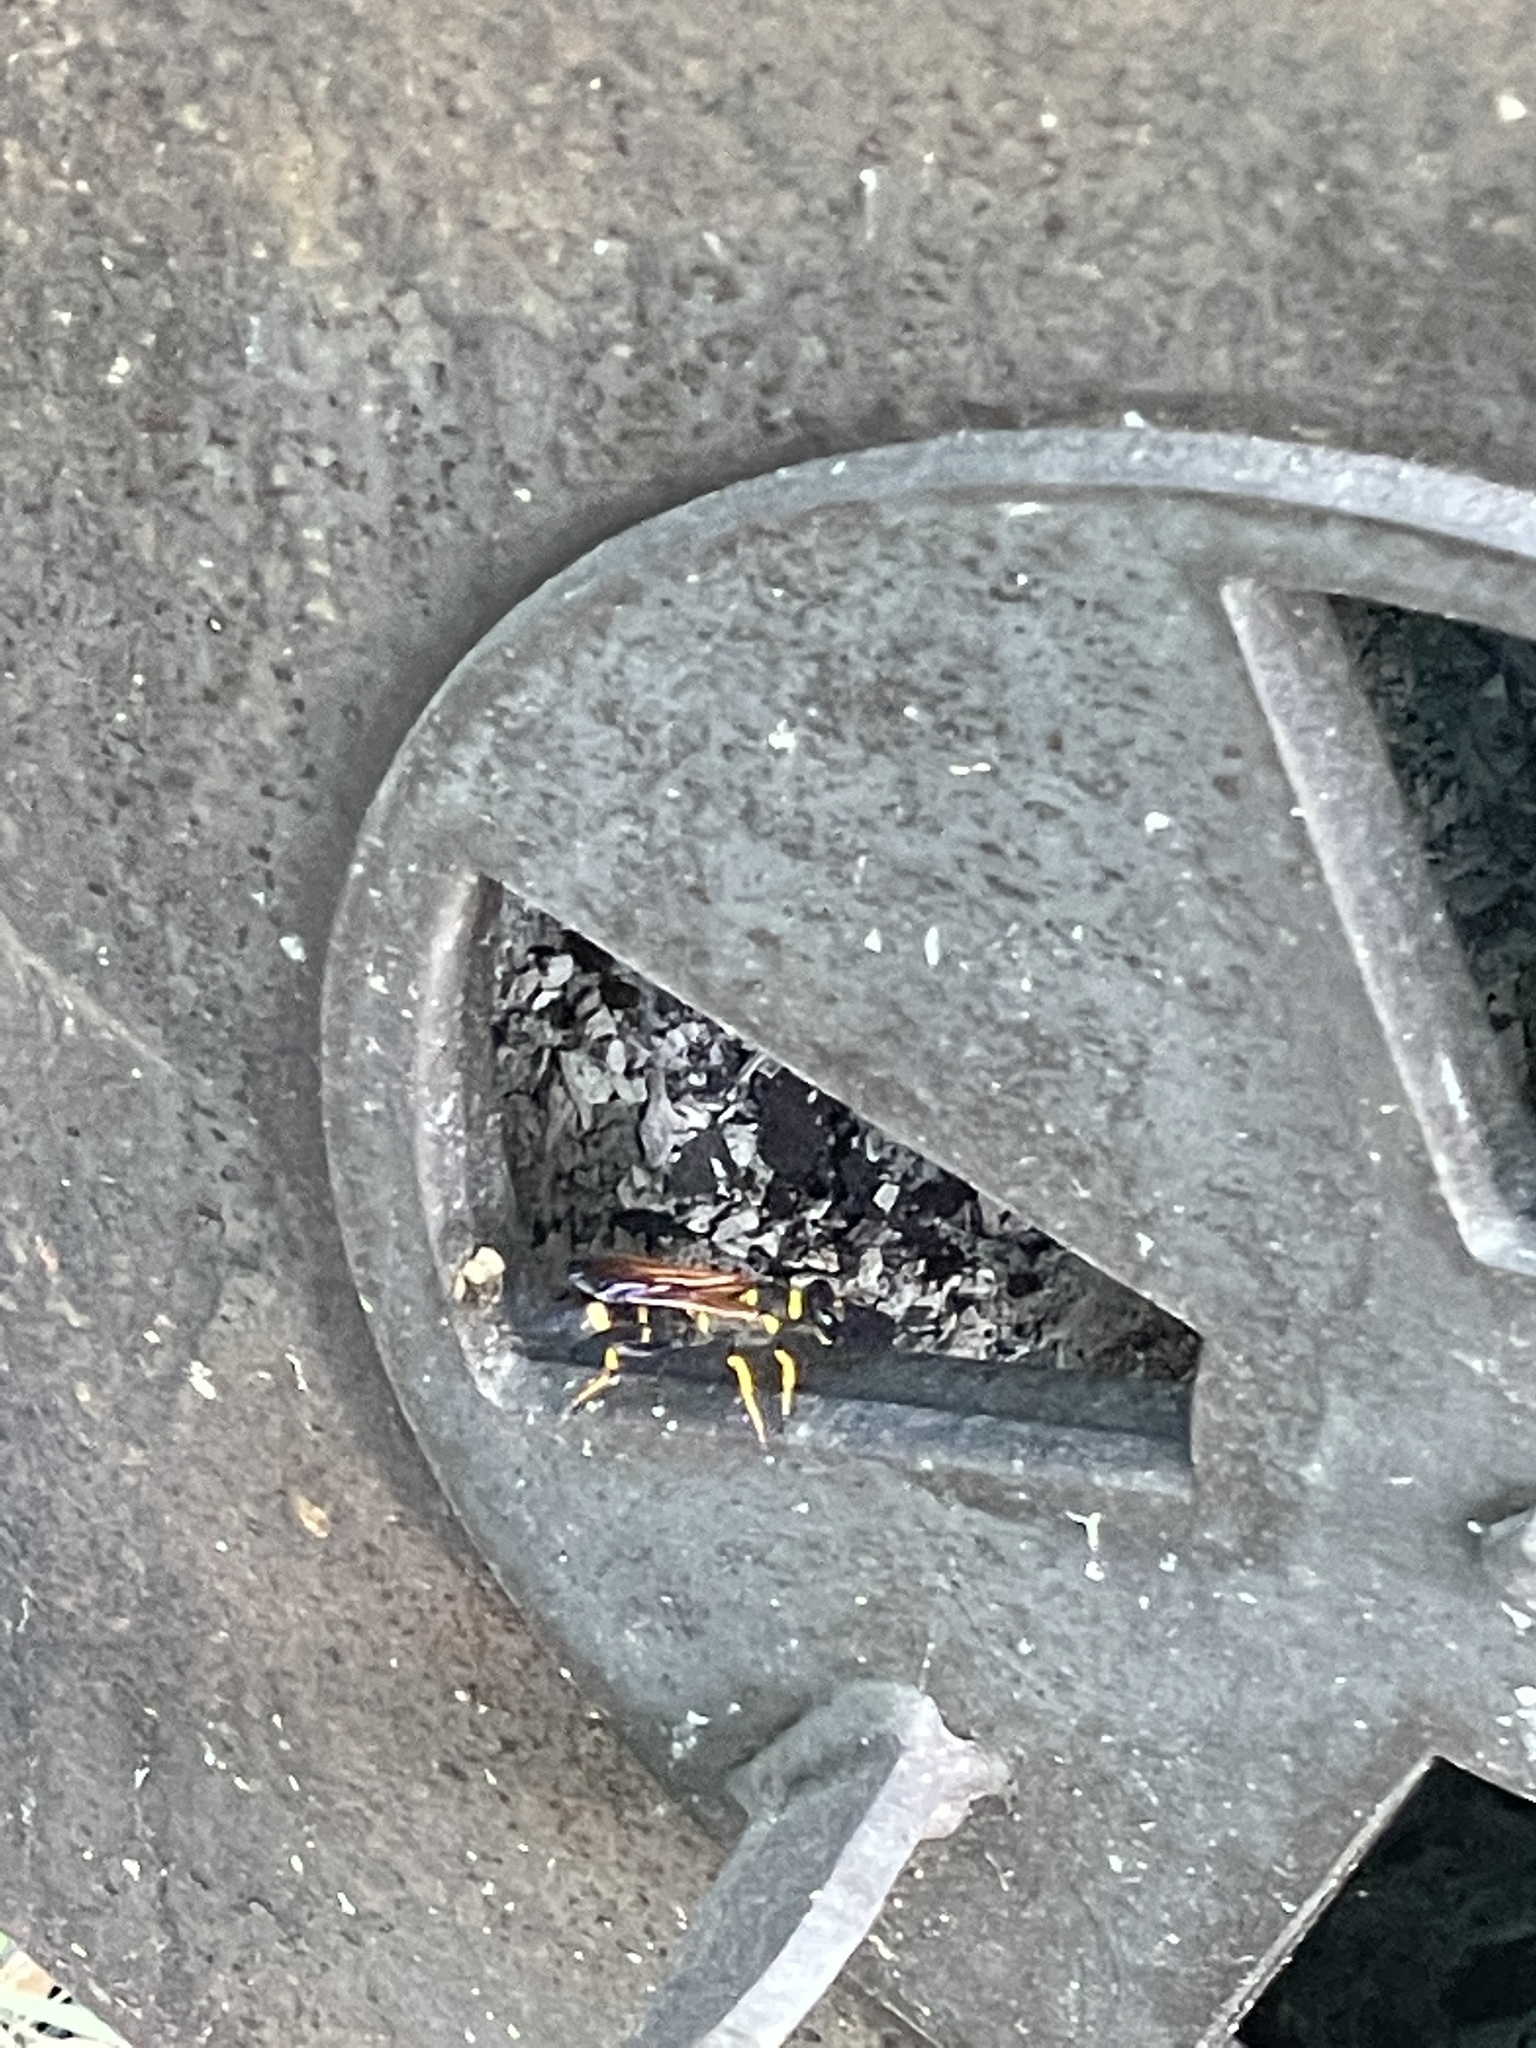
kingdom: Animalia
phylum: Arthropoda
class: Insecta
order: Hymenoptera
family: Sphecidae
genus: Sceliphron
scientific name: Sceliphron caementarium
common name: Mud dauber
